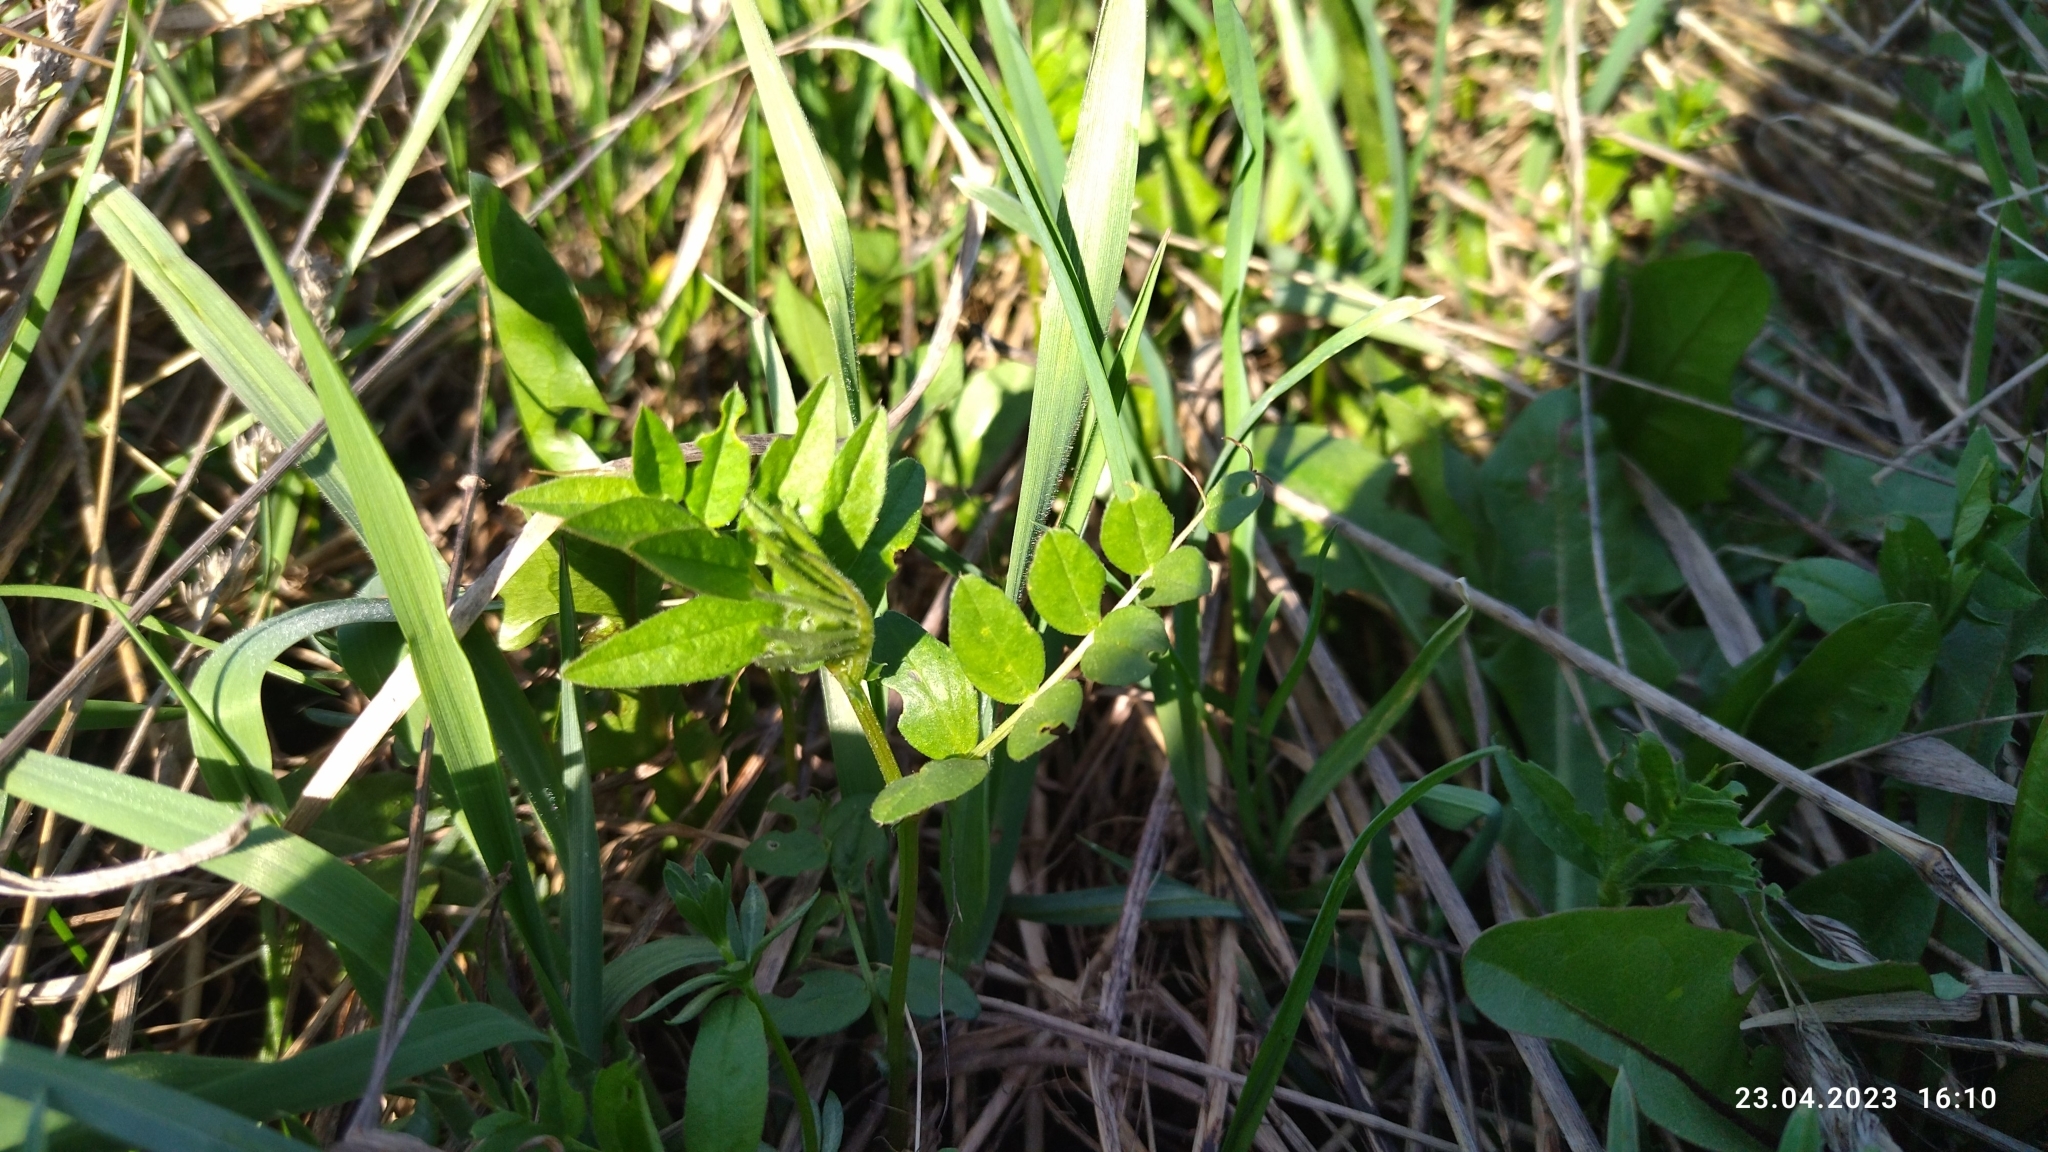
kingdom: Plantae
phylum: Tracheophyta
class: Magnoliopsida
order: Fabales
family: Fabaceae
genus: Vicia
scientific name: Vicia sepium
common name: Bush vetch
